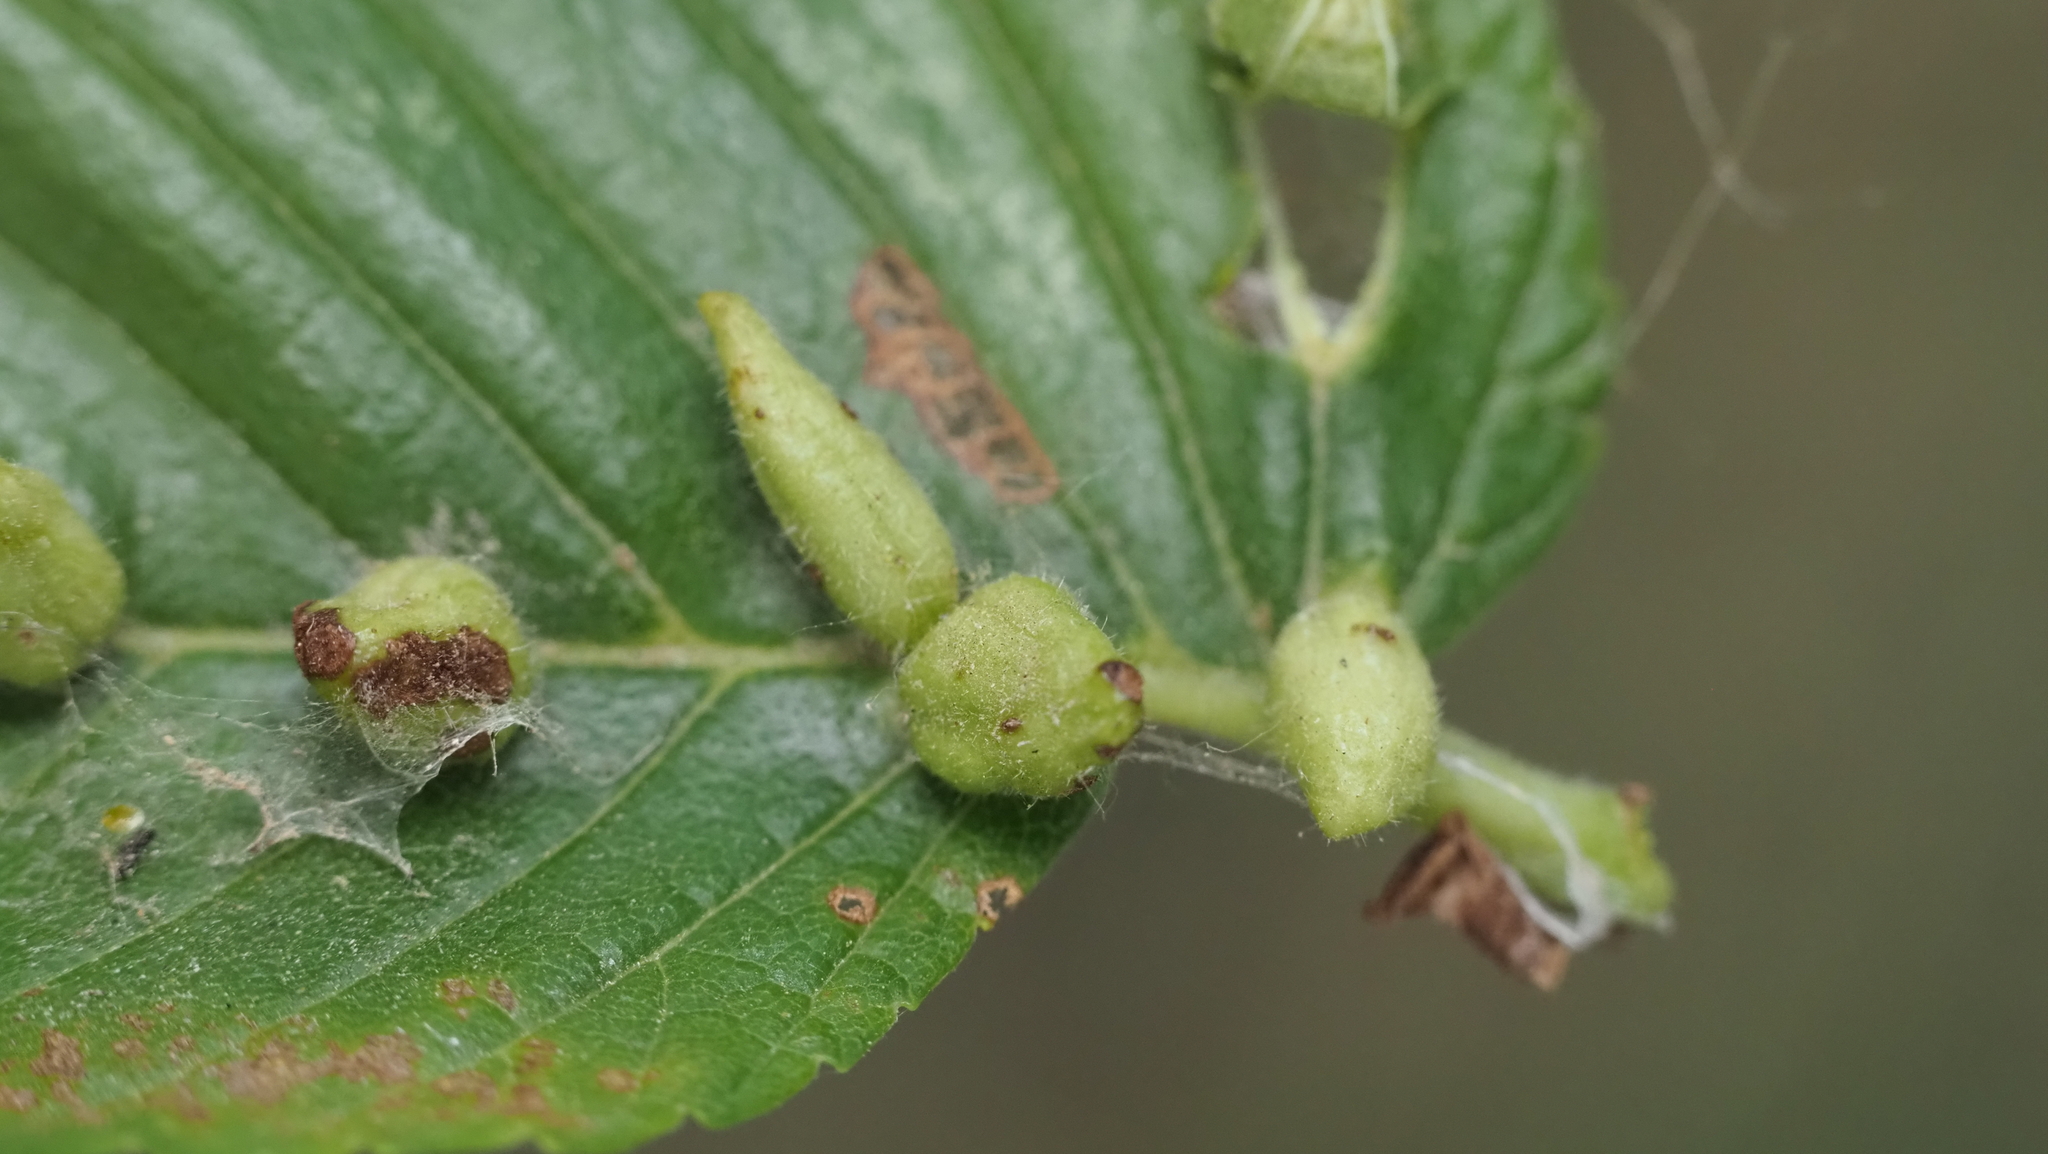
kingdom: Animalia
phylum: Arthropoda
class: Arachnida
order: Trombidiformes
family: Eriophyidae
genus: Aceria
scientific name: Aceria
